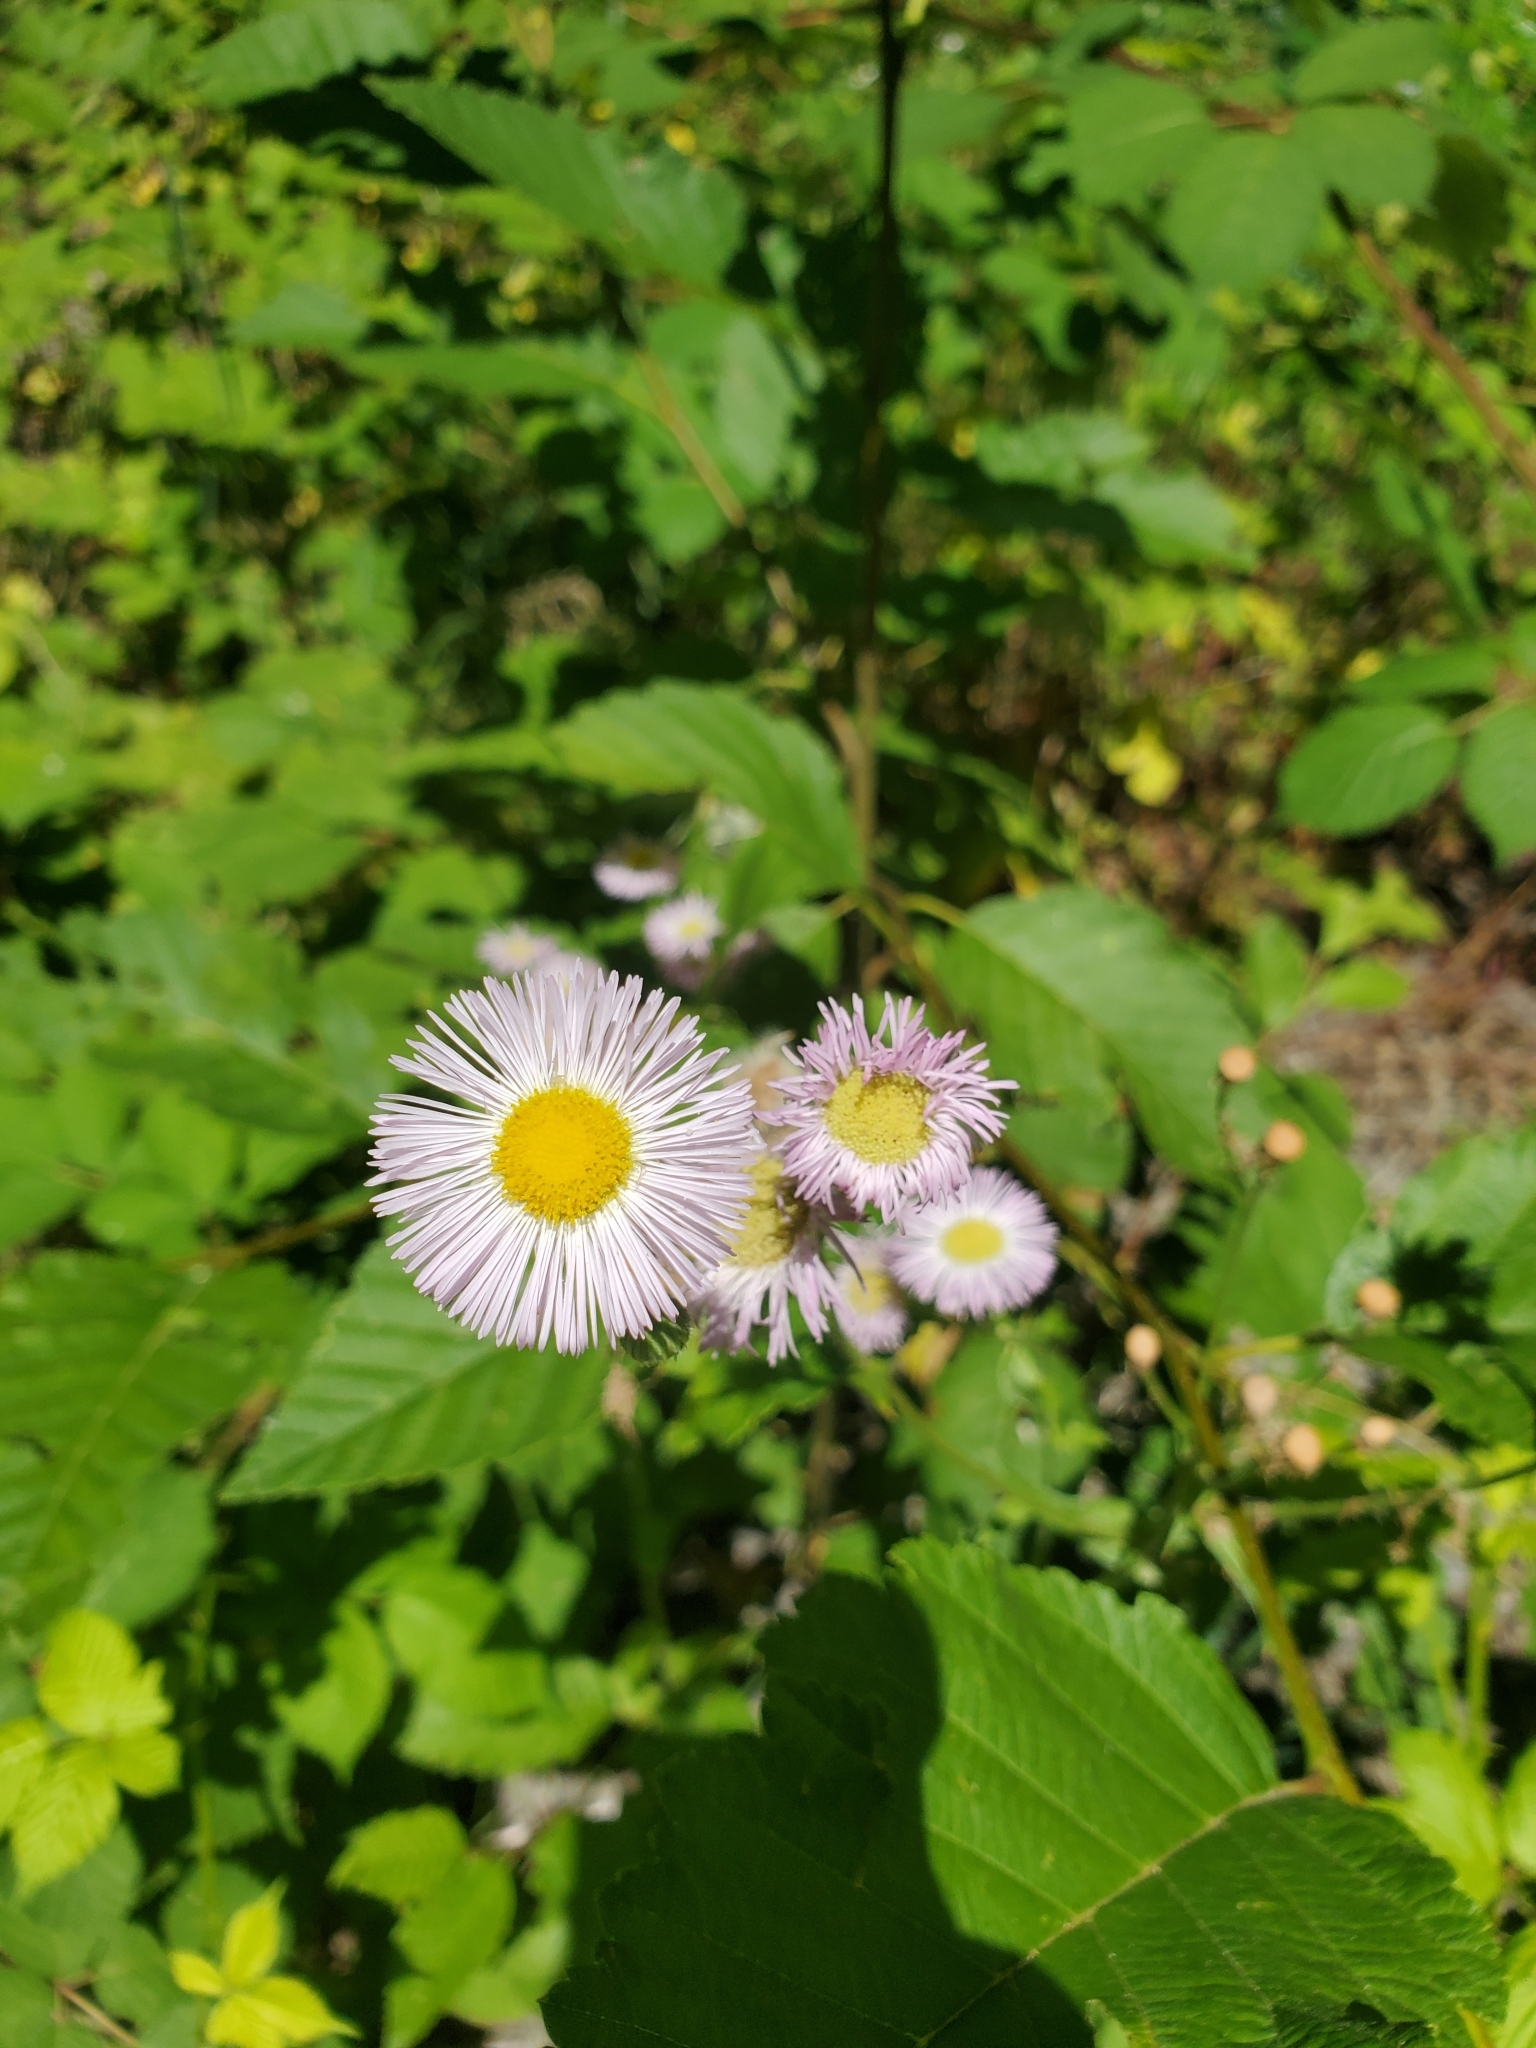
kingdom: Plantae
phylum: Tracheophyta
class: Magnoliopsida
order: Asterales
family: Asteraceae
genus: Erigeron
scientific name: Erigeron philadelphicus
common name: Robin's-plantain
